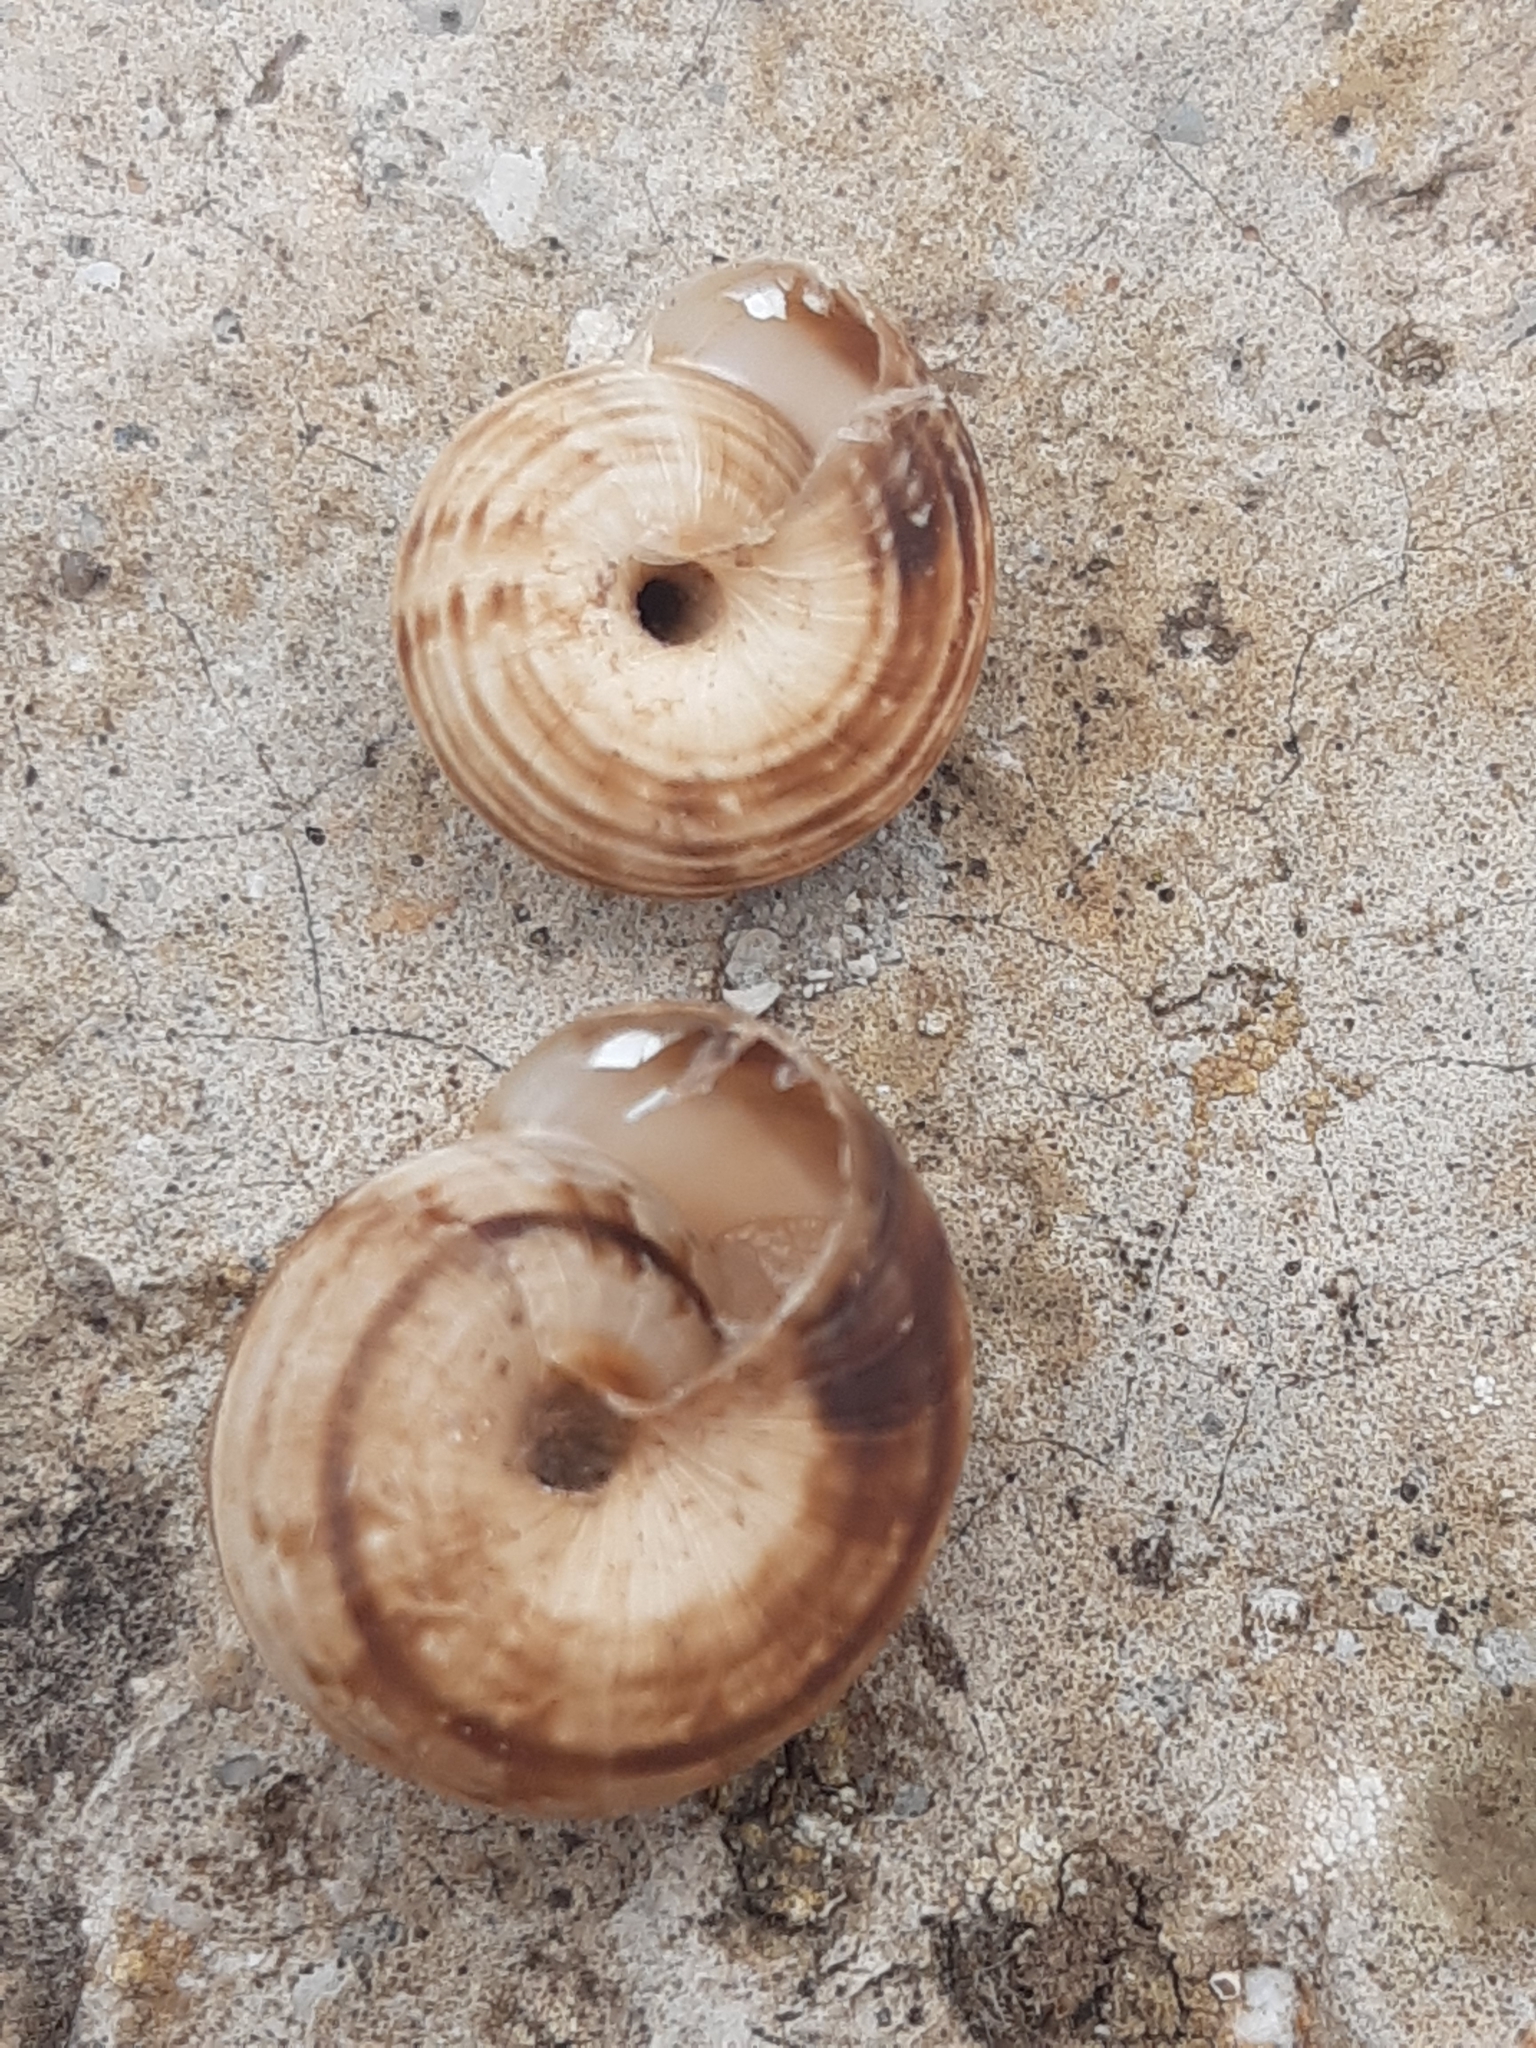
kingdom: Animalia
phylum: Mollusca
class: Gastropoda
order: Stylommatophora
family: Geomitridae
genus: Cernuella
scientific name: Cernuella virgata
